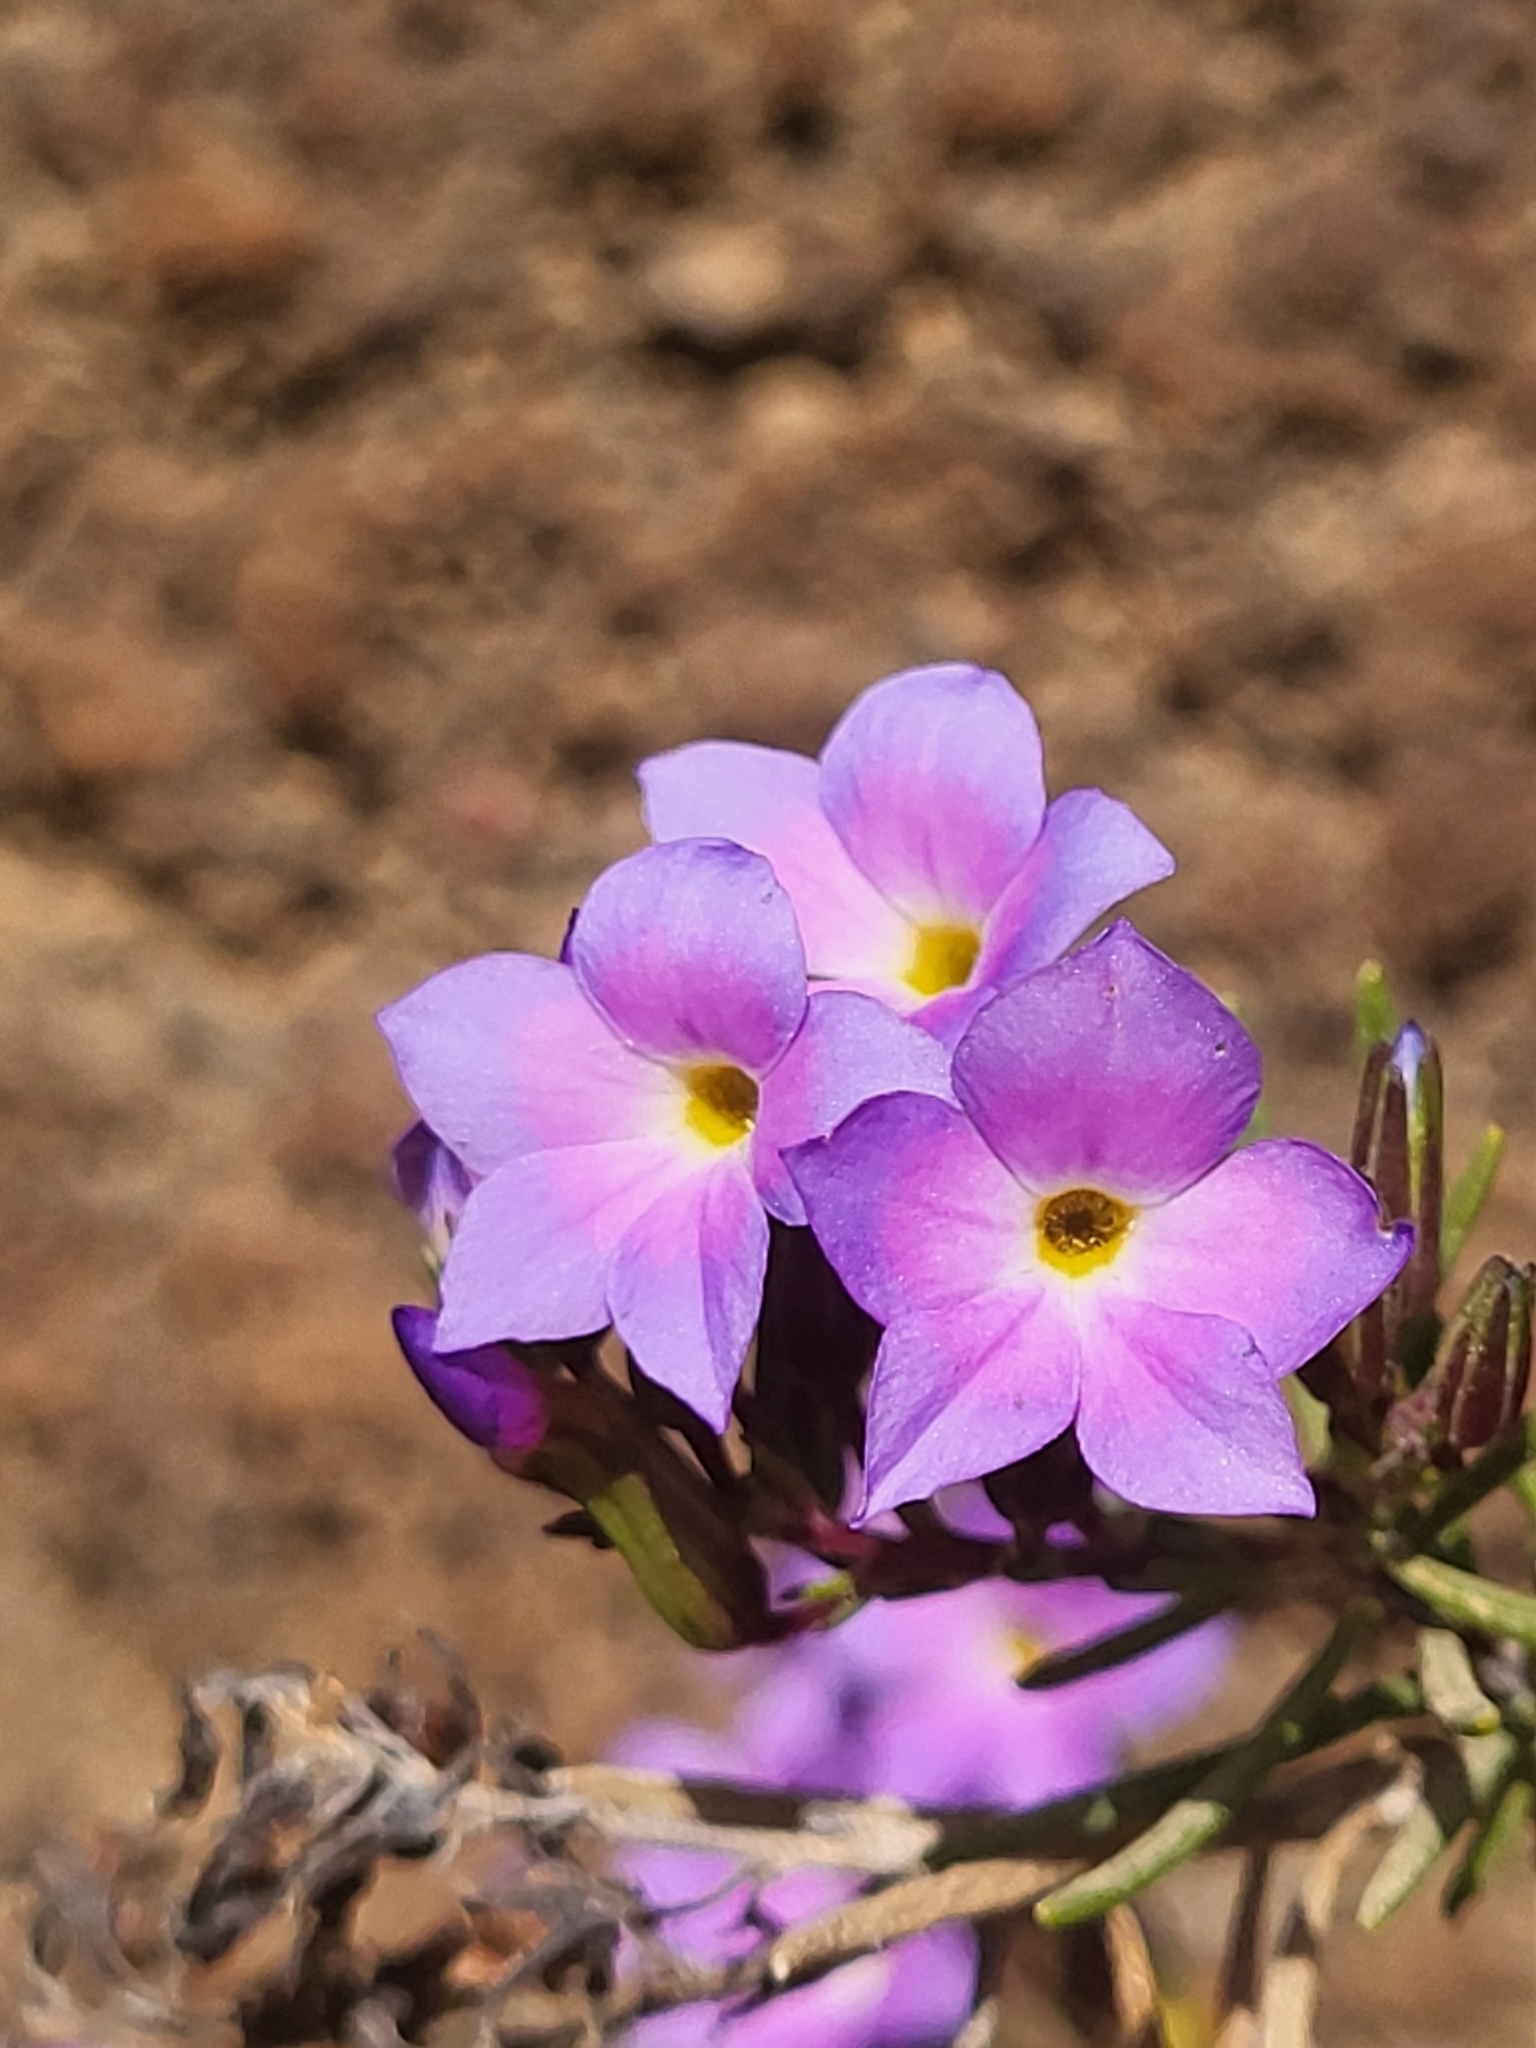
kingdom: Plantae
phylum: Tracheophyta
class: Magnoliopsida
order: Lamiales
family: Plantaginaceae
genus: Campylanthus
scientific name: Campylanthus glaber
